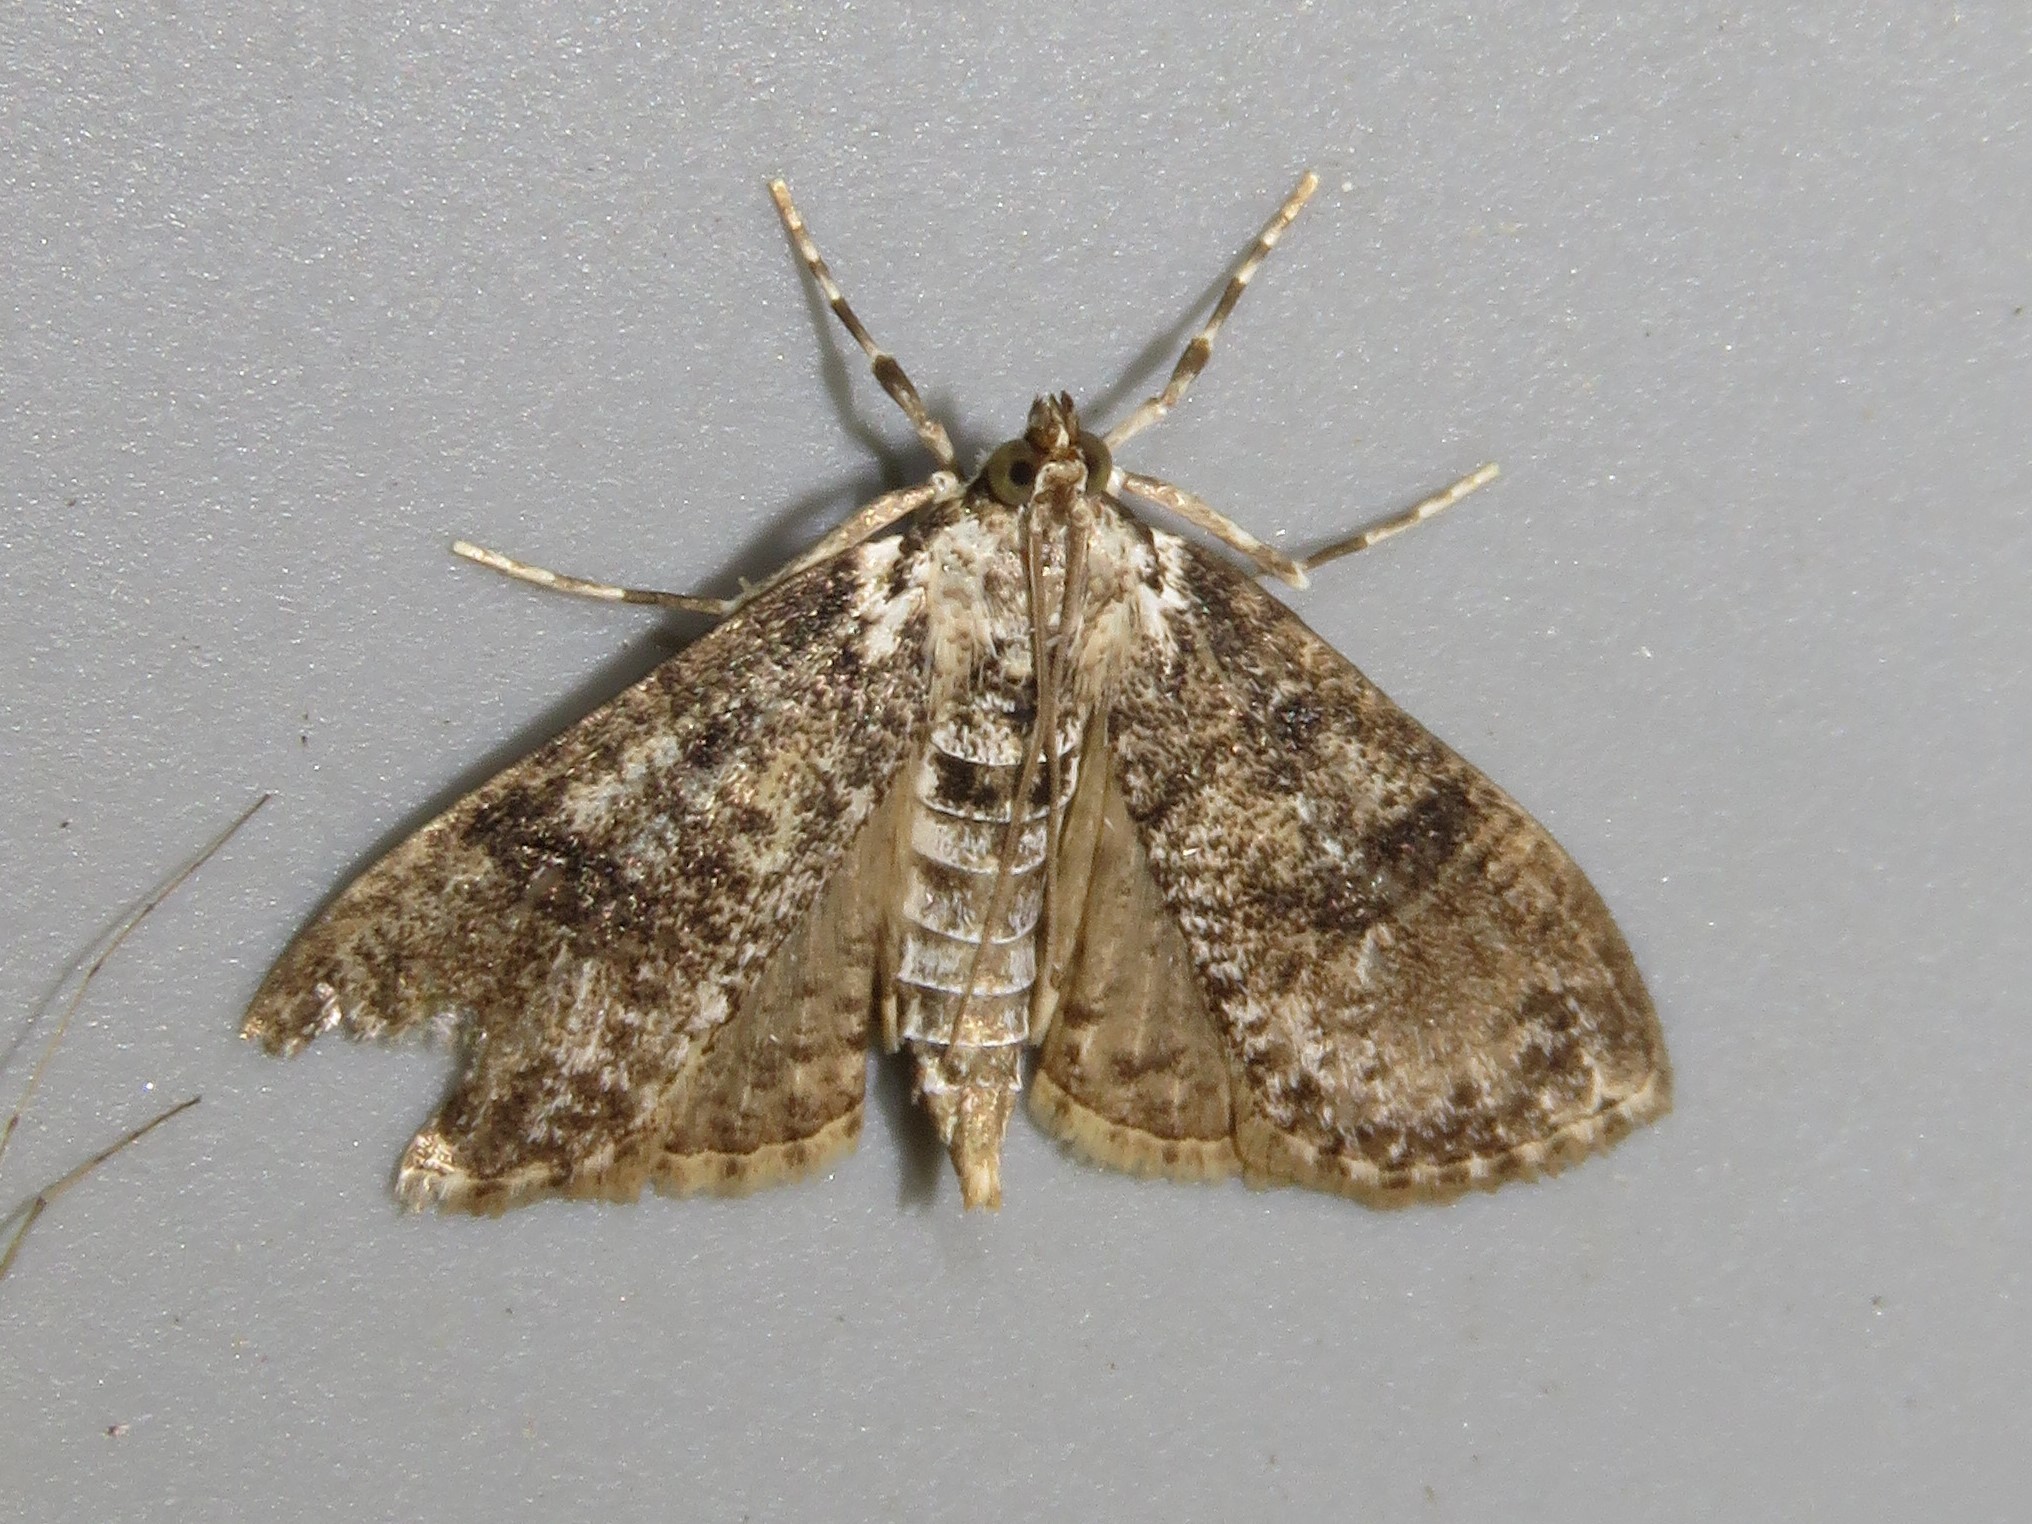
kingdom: Animalia
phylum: Arthropoda
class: Insecta
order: Lepidoptera
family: Crambidae
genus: Palpita
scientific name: Palpita magniferalis
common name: Splendid palpita moth
